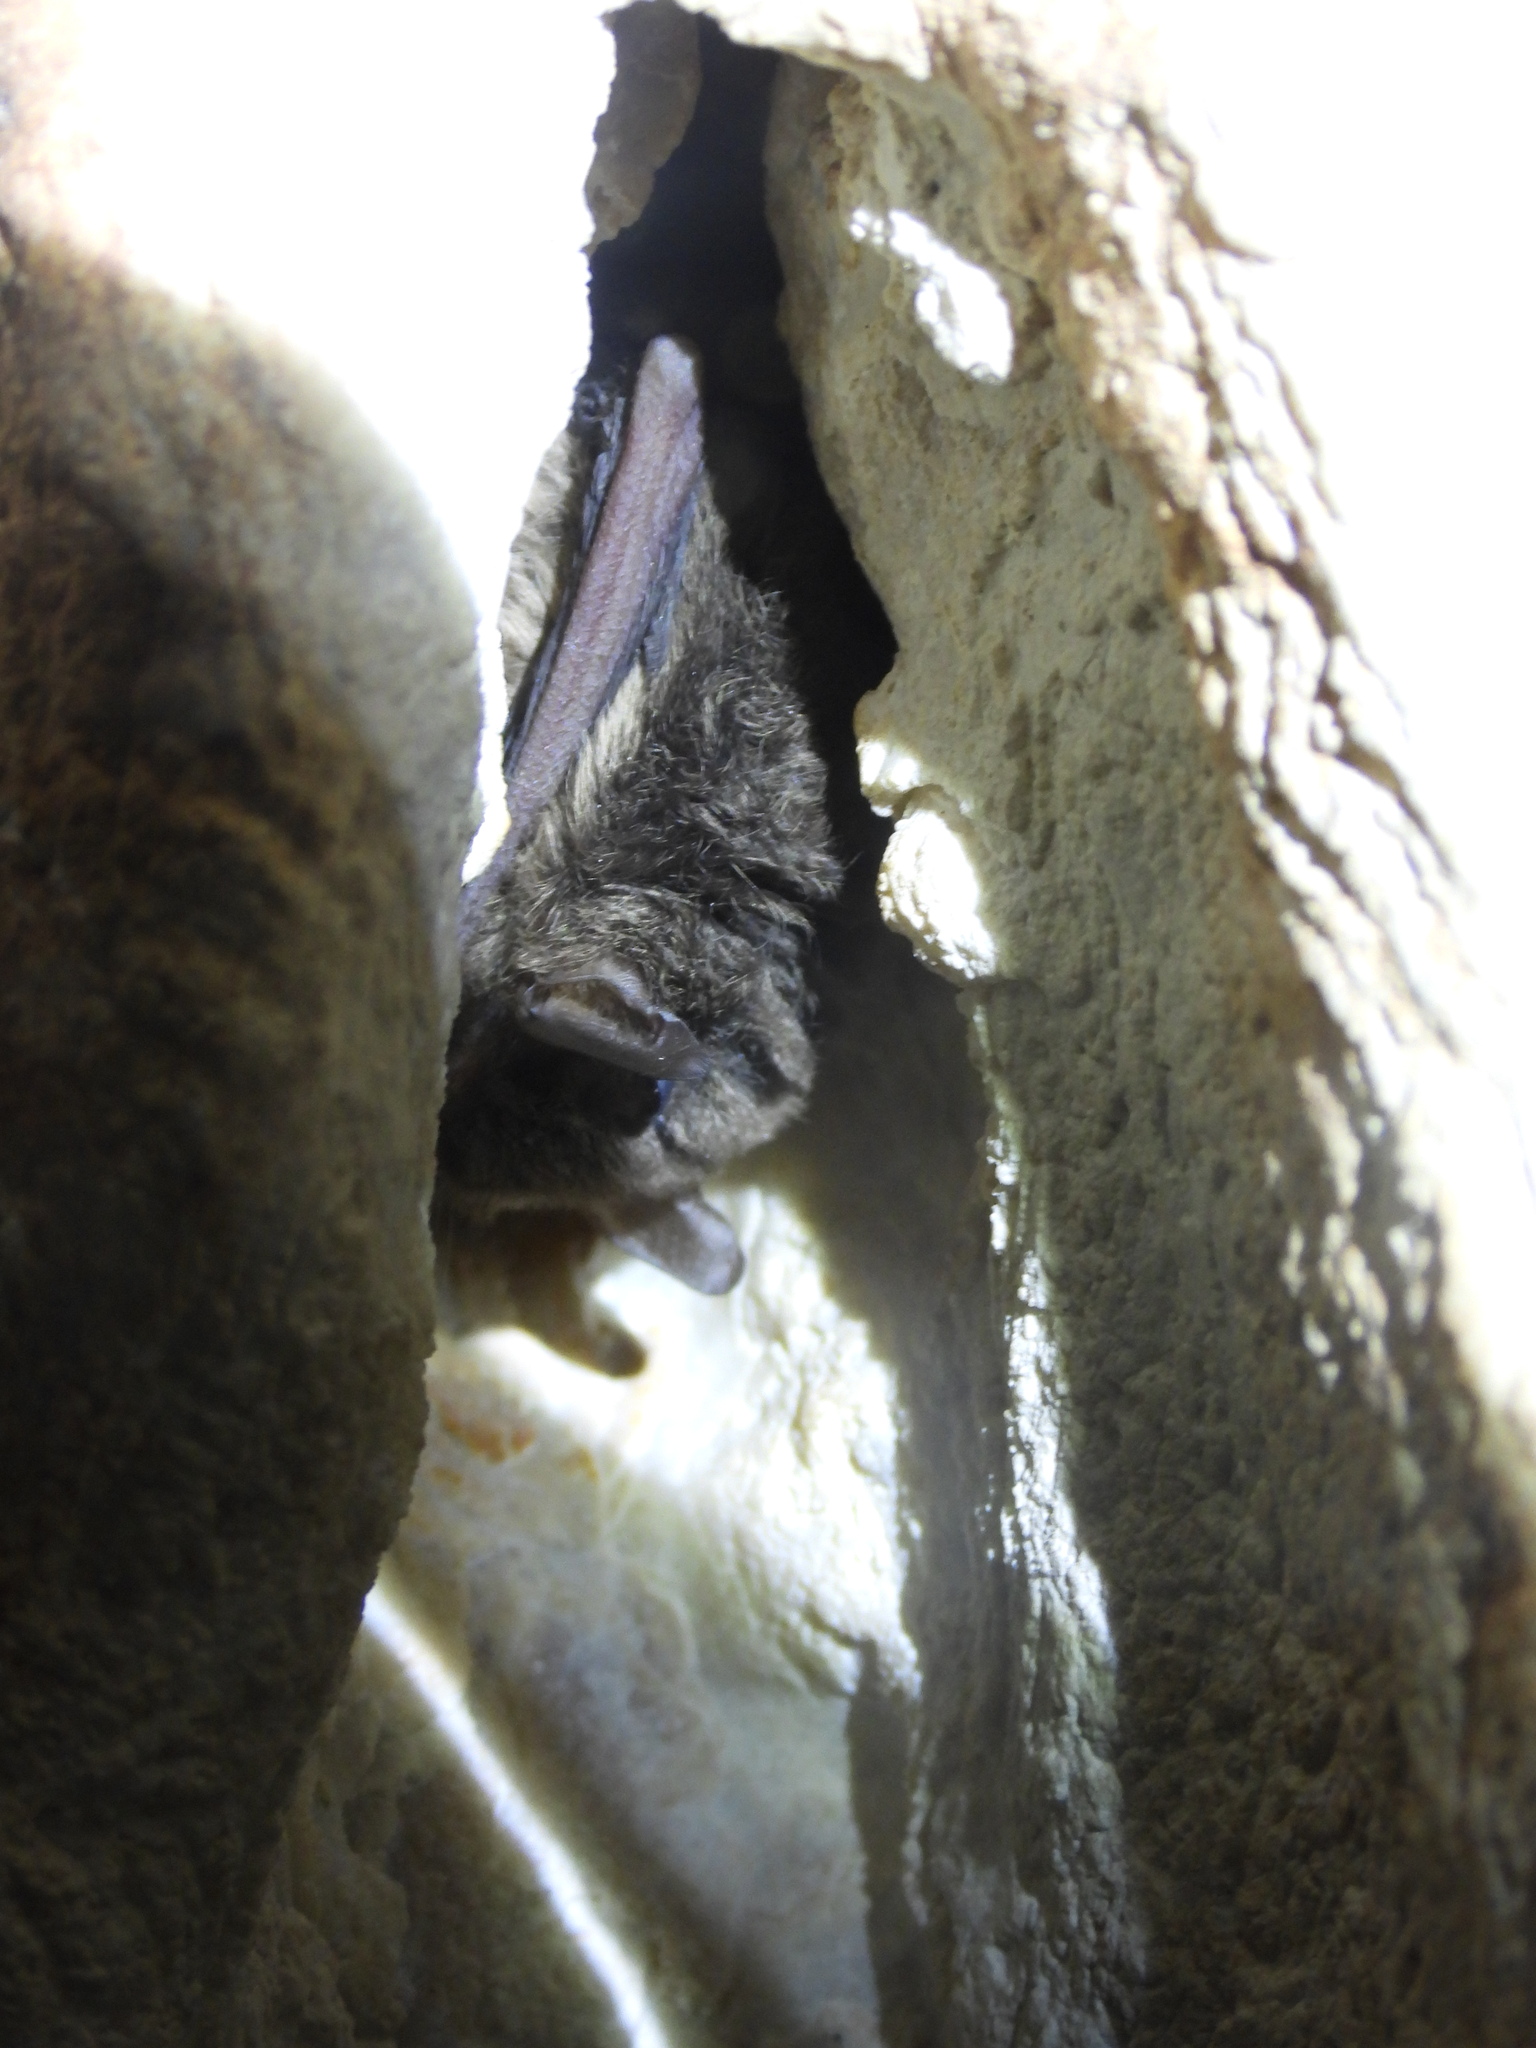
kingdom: Animalia
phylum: Chordata
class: Mammalia
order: Chiroptera
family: Vespertilionidae
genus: Myotis
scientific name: Myotis pilosatibialis
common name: Northern hairy-legged myotis
